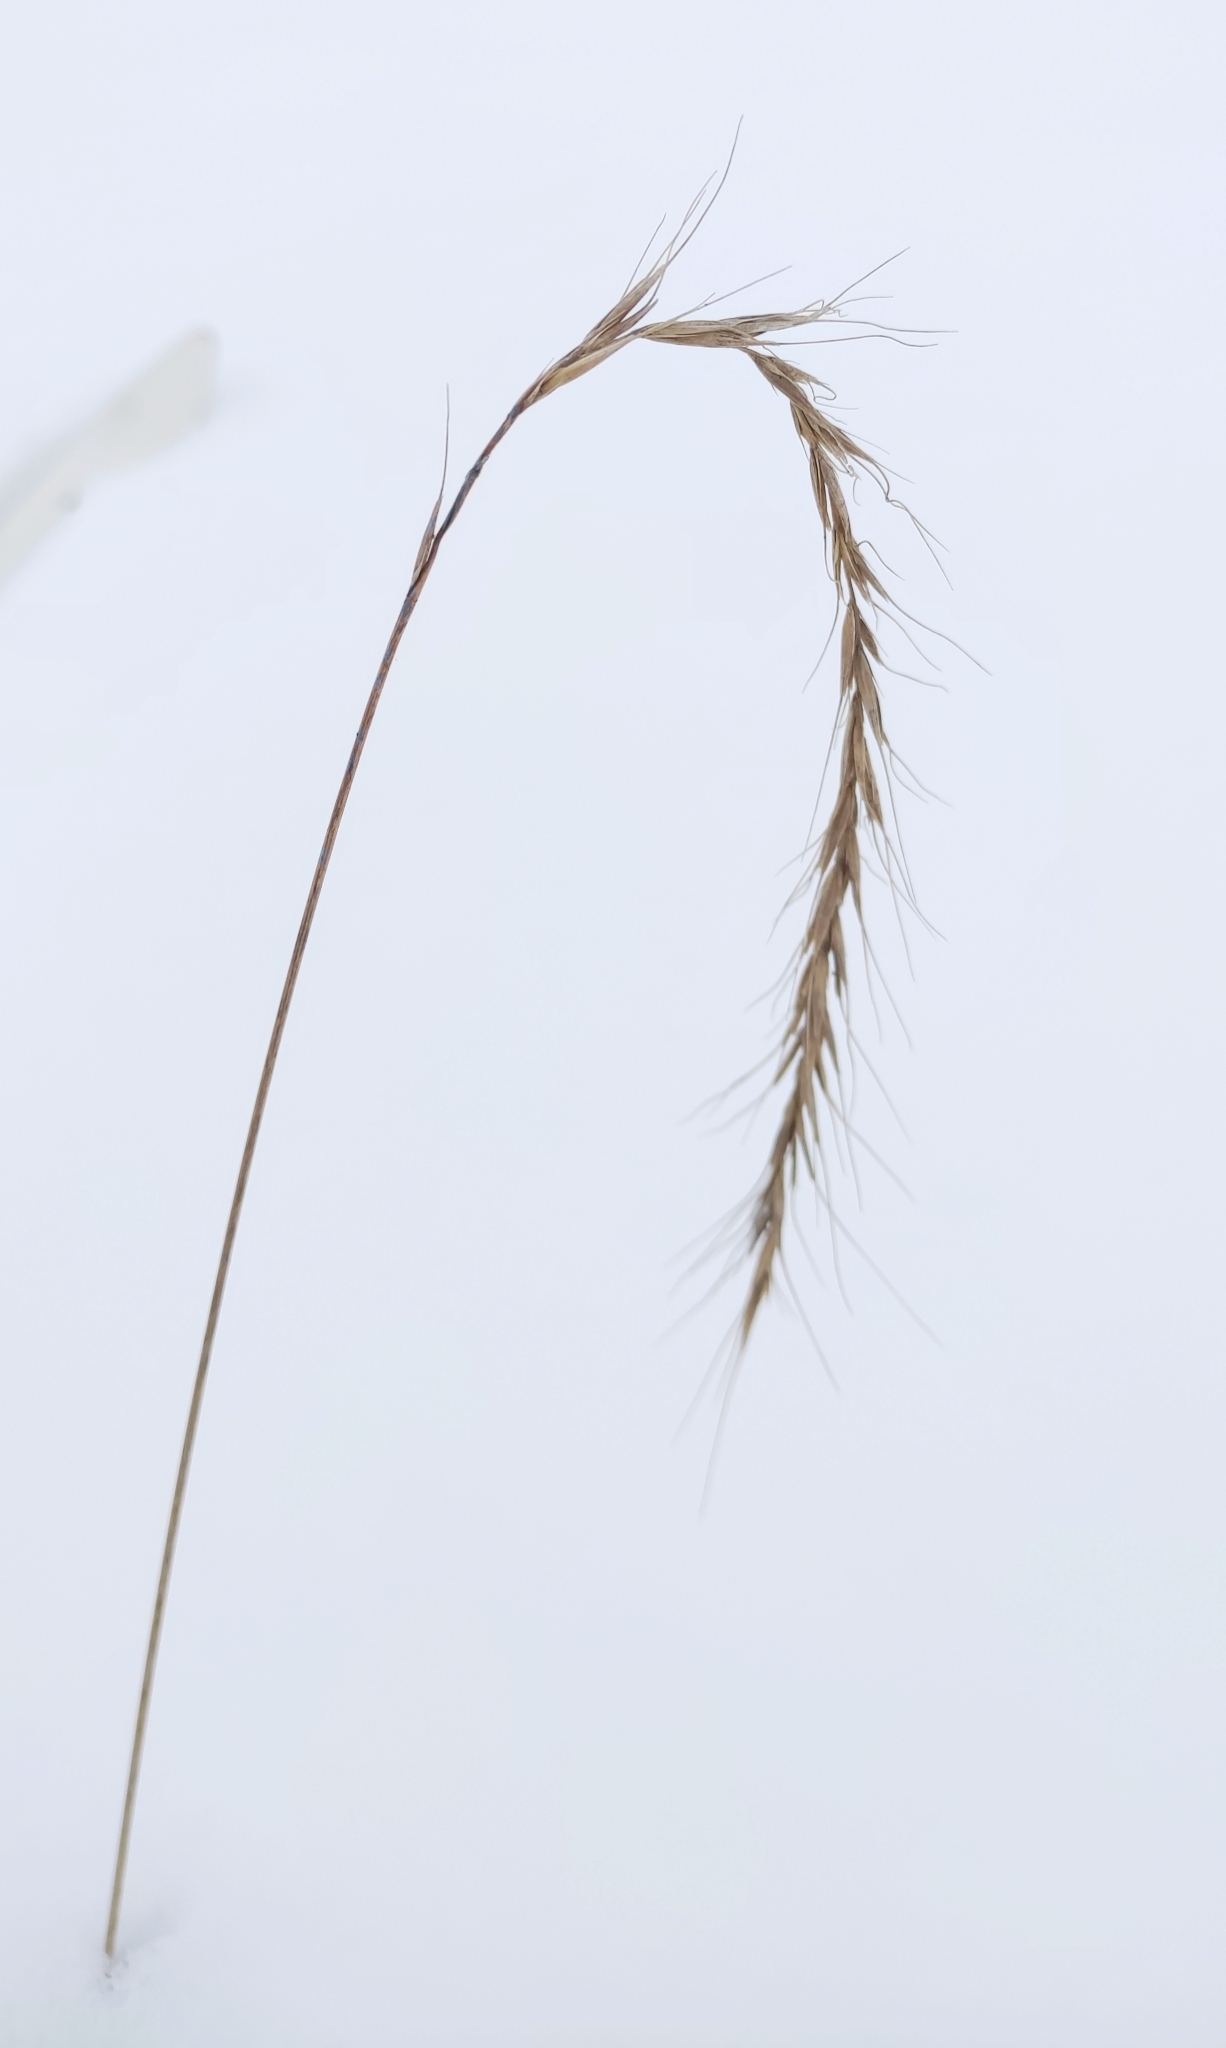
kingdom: Plantae
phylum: Tracheophyta
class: Liliopsida
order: Poales
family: Poaceae
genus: Elymus
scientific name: Elymus sibiricus
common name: Siberian wildrye
